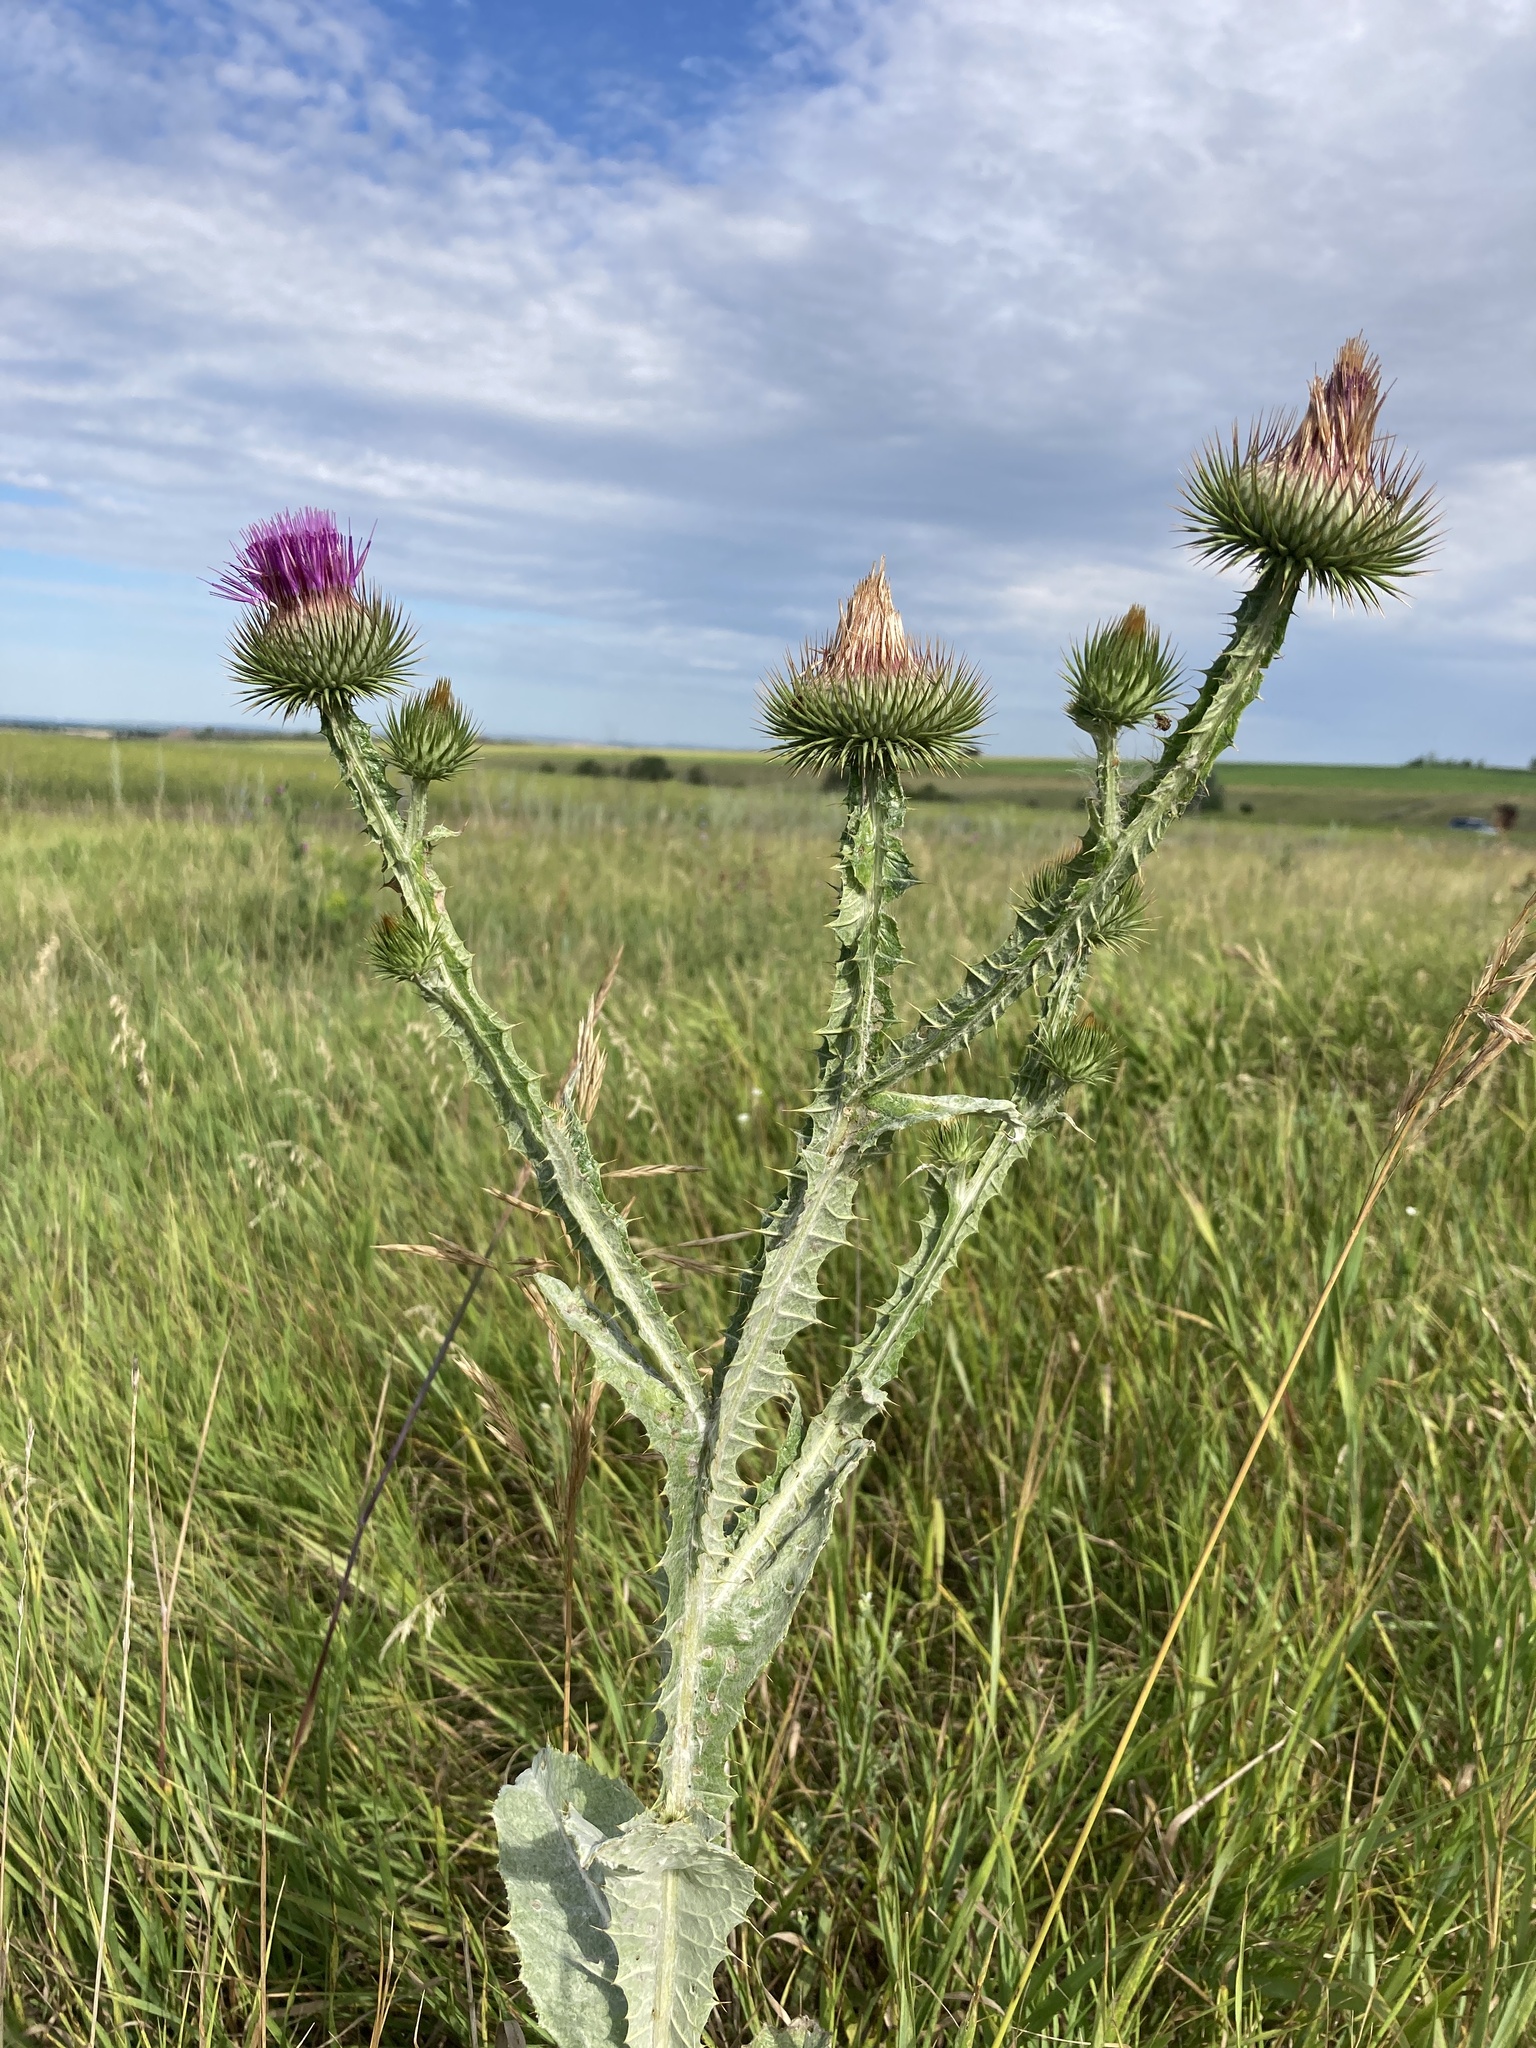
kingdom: Plantae
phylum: Tracheophyta
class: Magnoliopsida
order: Asterales
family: Asteraceae
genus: Onopordum
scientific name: Onopordum acanthium
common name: Scotch thistle
